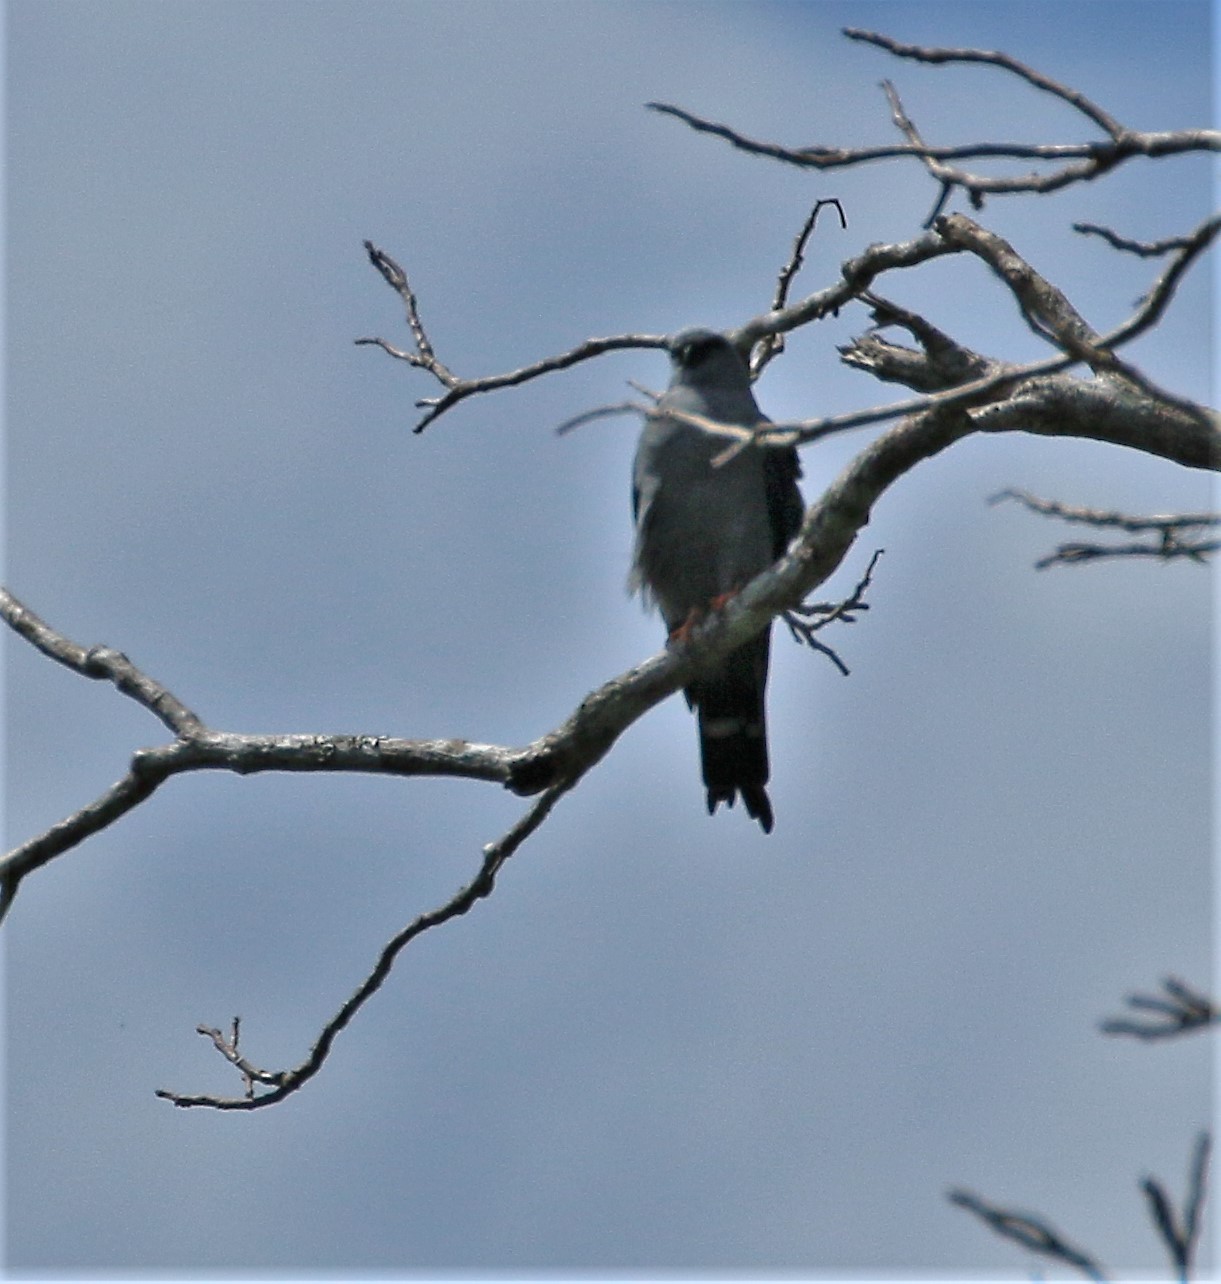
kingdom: Animalia
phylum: Chordata
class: Aves
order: Accipitriformes
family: Accipitridae
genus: Ictinia
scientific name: Ictinia plumbea
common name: Plumbeous kite
